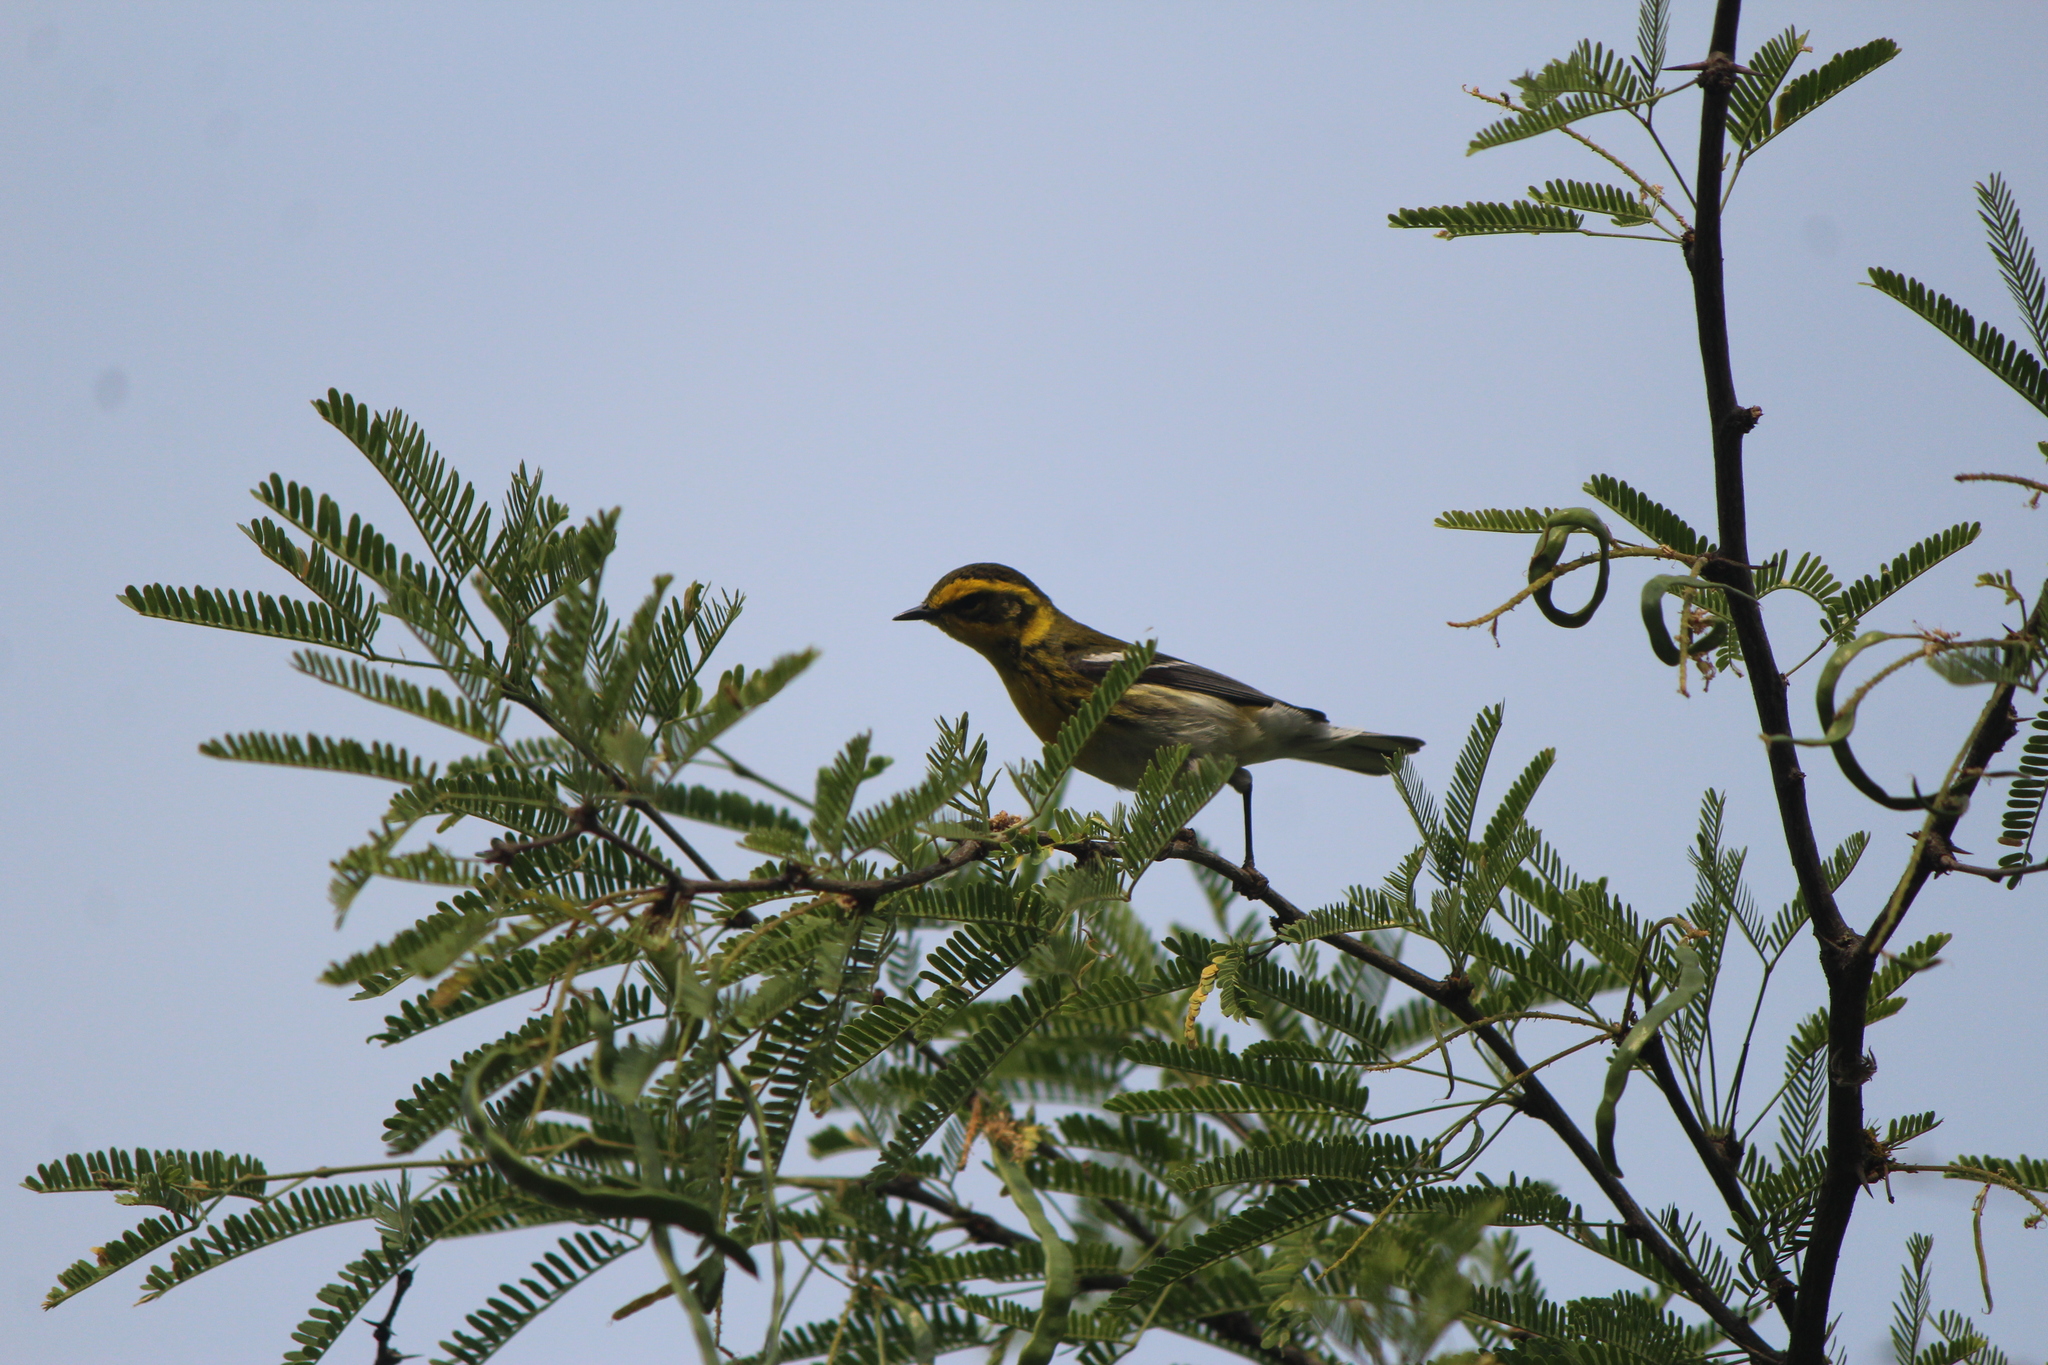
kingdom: Animalia
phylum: Chordata
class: Aves
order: Passeriformes
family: Parulidae
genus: Setophaga
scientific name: Setophaga townsendi
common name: Townsend's warbler
